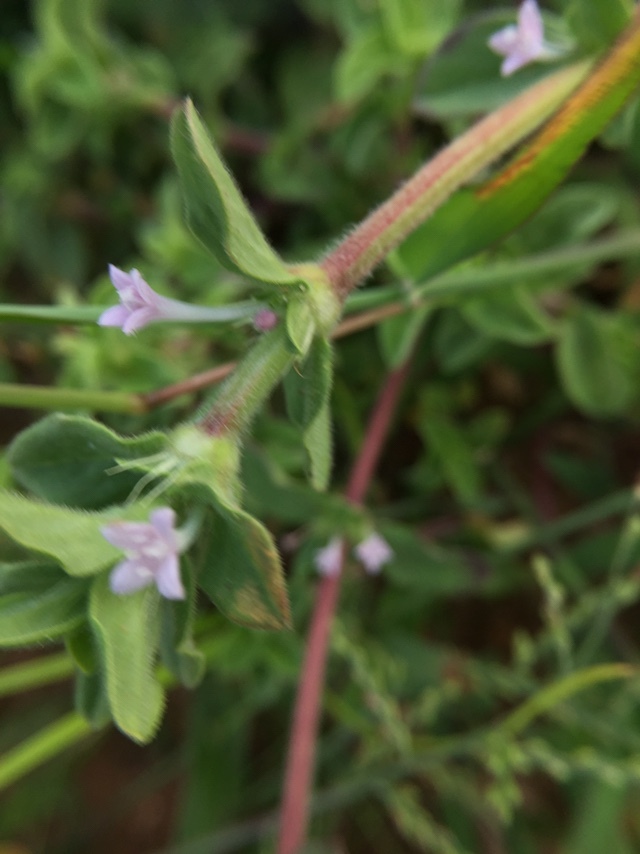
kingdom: Plantae
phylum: Tracheophyta
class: Magnoliopsida
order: Gentianales
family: Rubiaceae
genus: Spermacoce
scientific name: Spermacoce articularis
